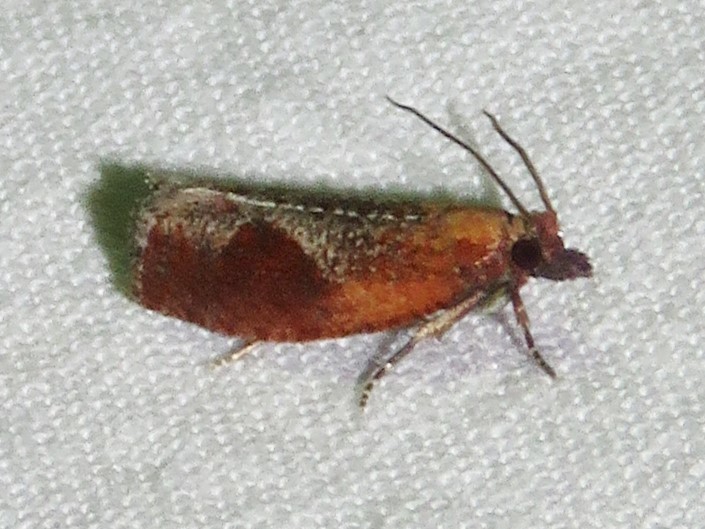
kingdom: Animalia
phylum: Arthropoda
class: Insecta
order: Lepidoptera
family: Tortricidae
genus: Epinotia
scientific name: Epinotia septemberana
